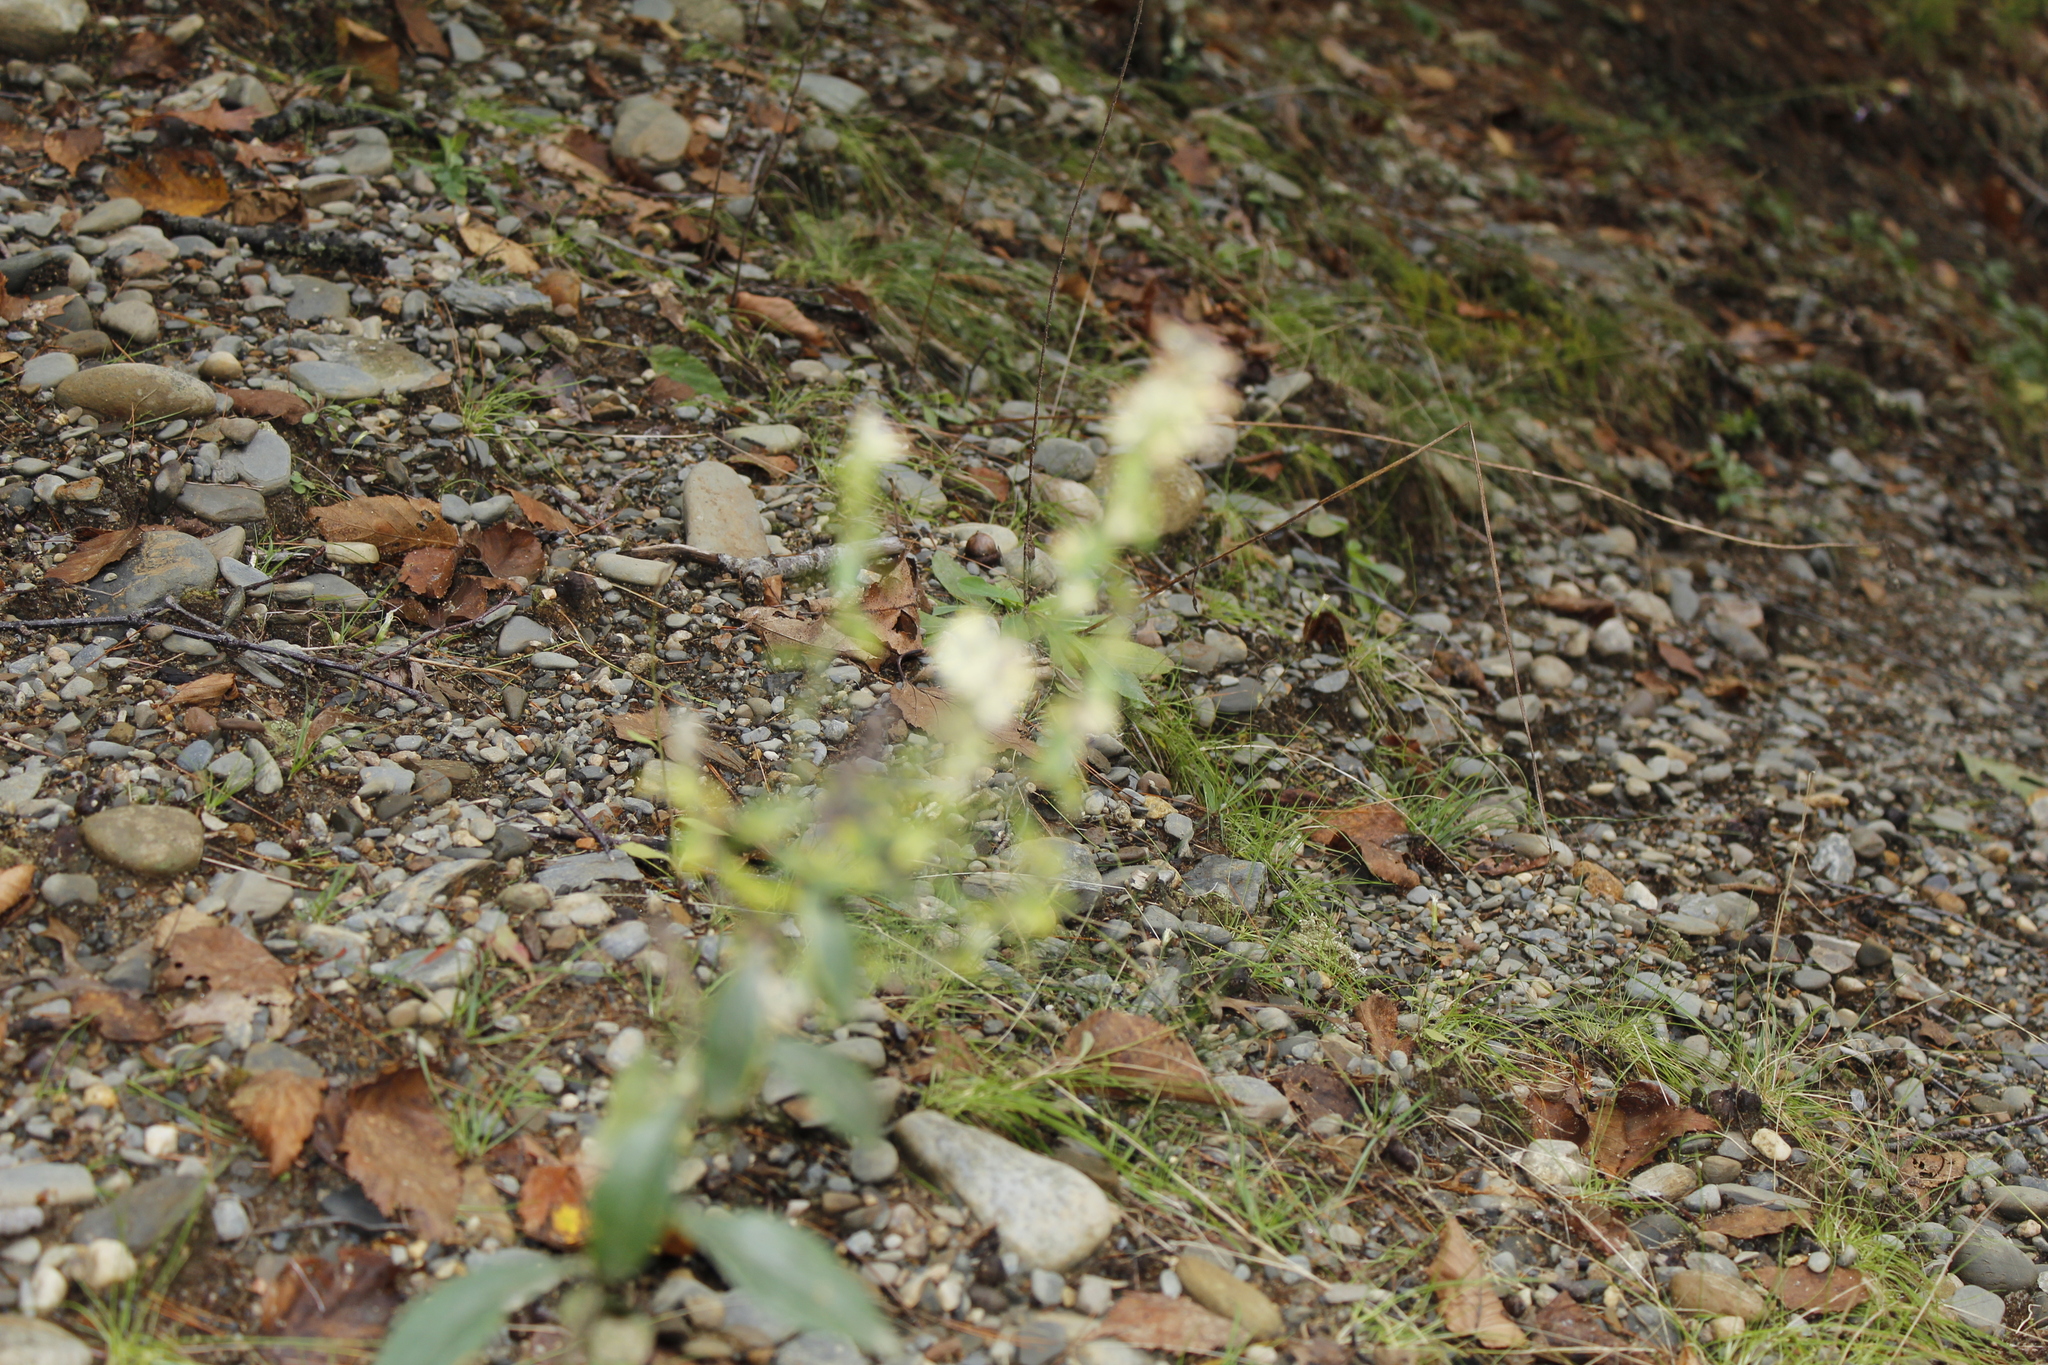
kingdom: Plantae
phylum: Tracheophyta
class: Magnoliopsida
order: Asterales
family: Asteraceae
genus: Solidago
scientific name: Solidago bicolor
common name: Silverrod
